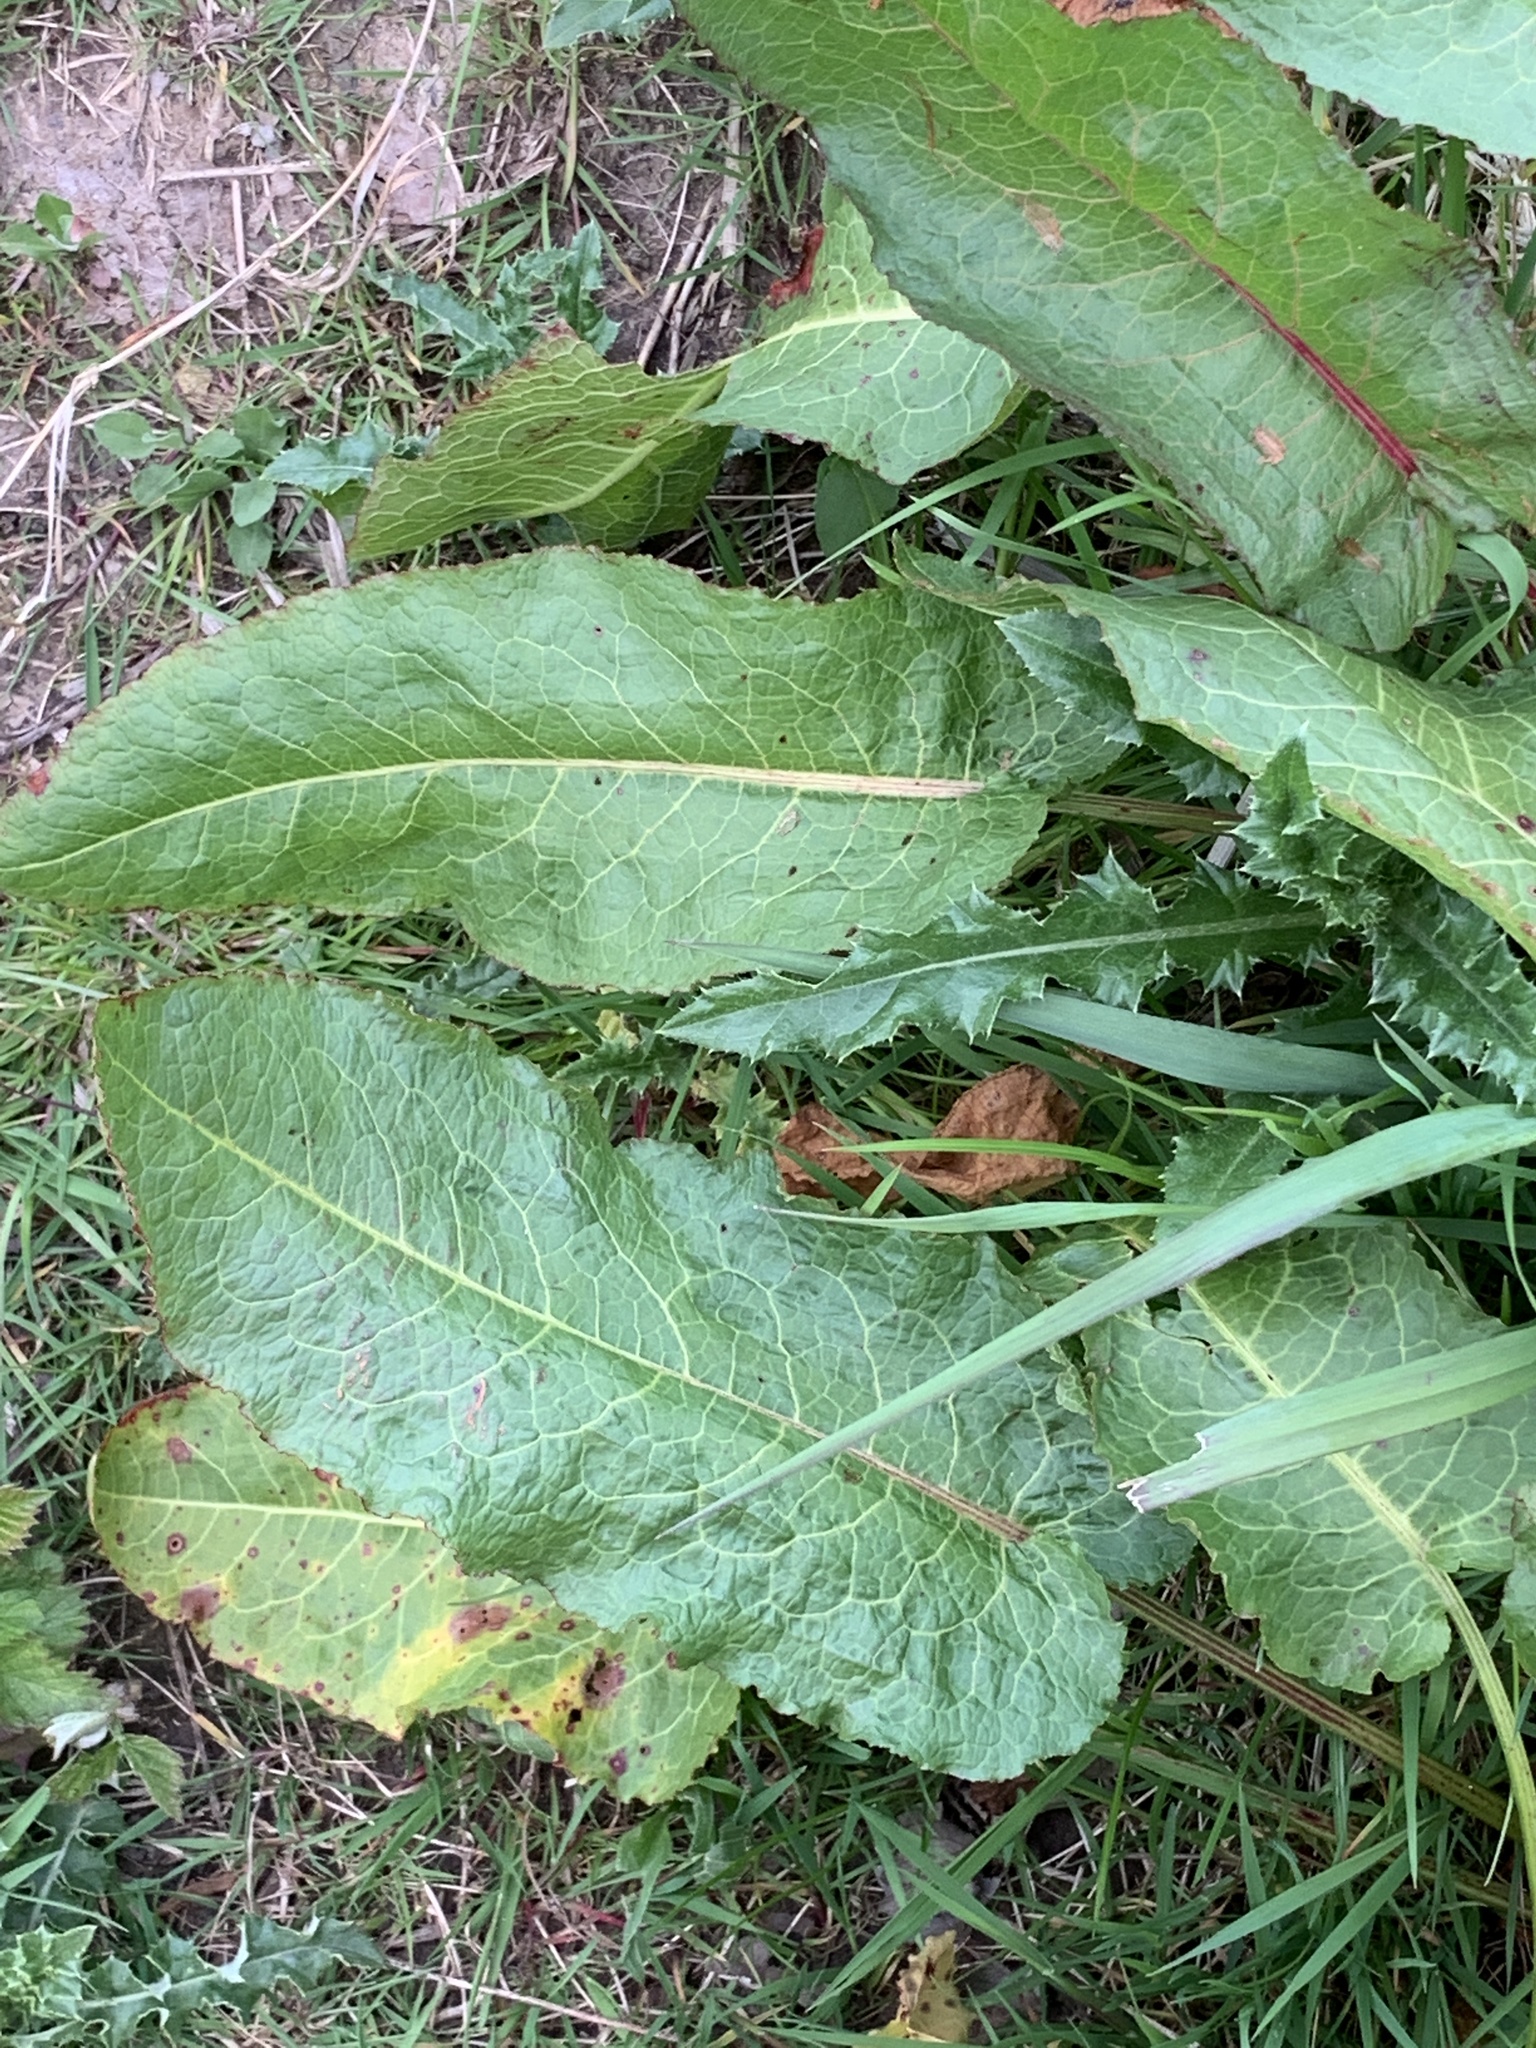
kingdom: Plantae
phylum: Tracheophyta
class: Magnoliopsida
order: Caryophyllales
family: Polygonaceae
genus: Rumex
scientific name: Rumex obtusifolius
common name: Bitter dock
